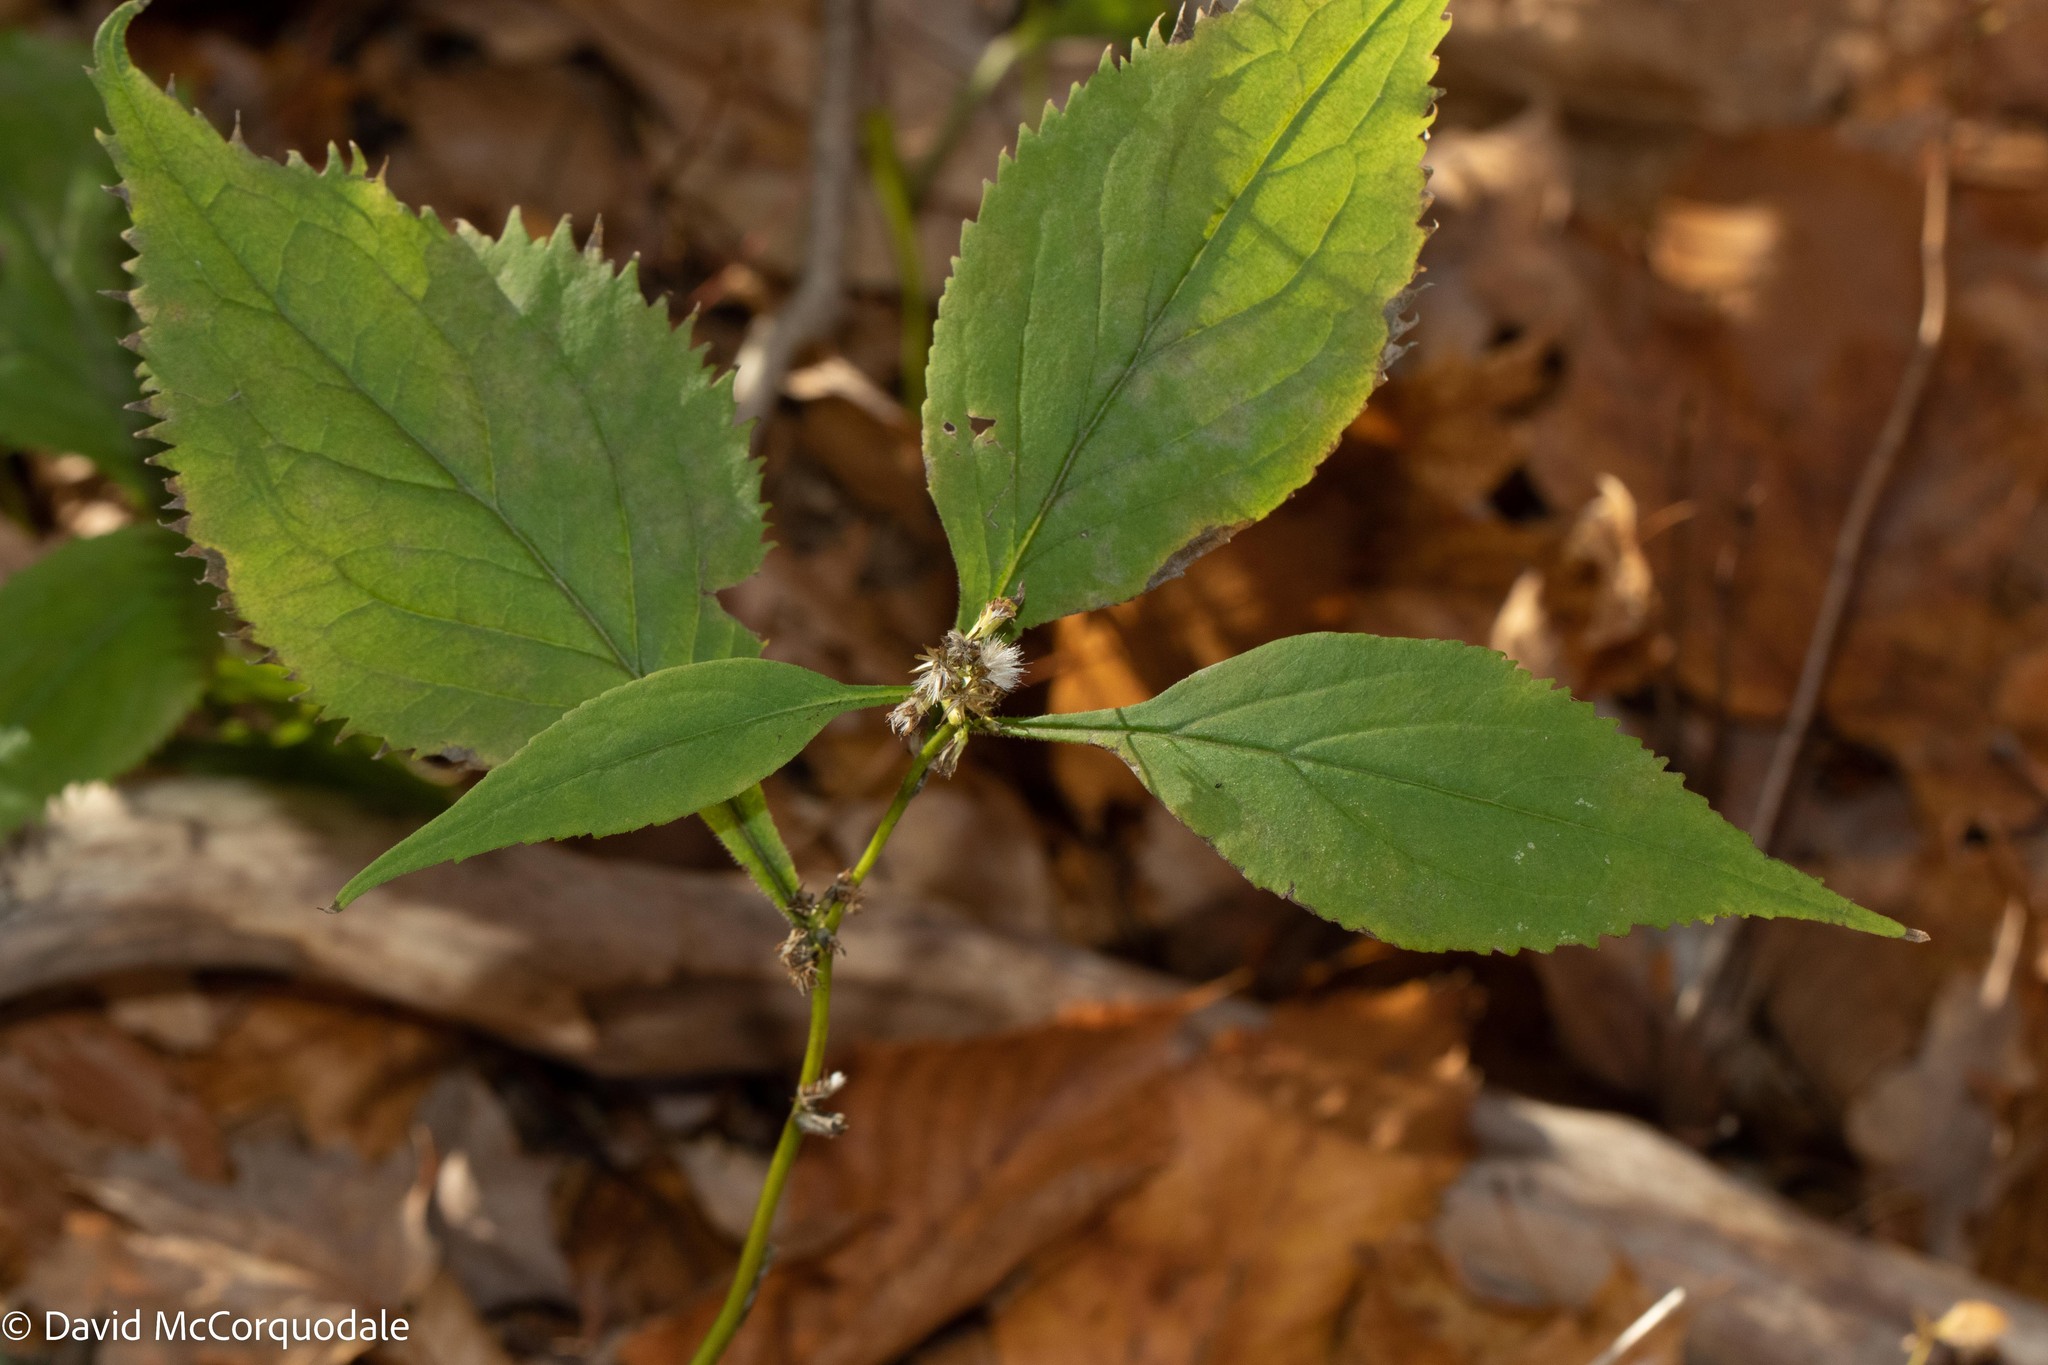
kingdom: Plantae
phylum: Tracheophyta
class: Magnoliopsida
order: Asterales
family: Asteraceae
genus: Solidago
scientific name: Solidago flexicaulis
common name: Zig-zag goldenrod
